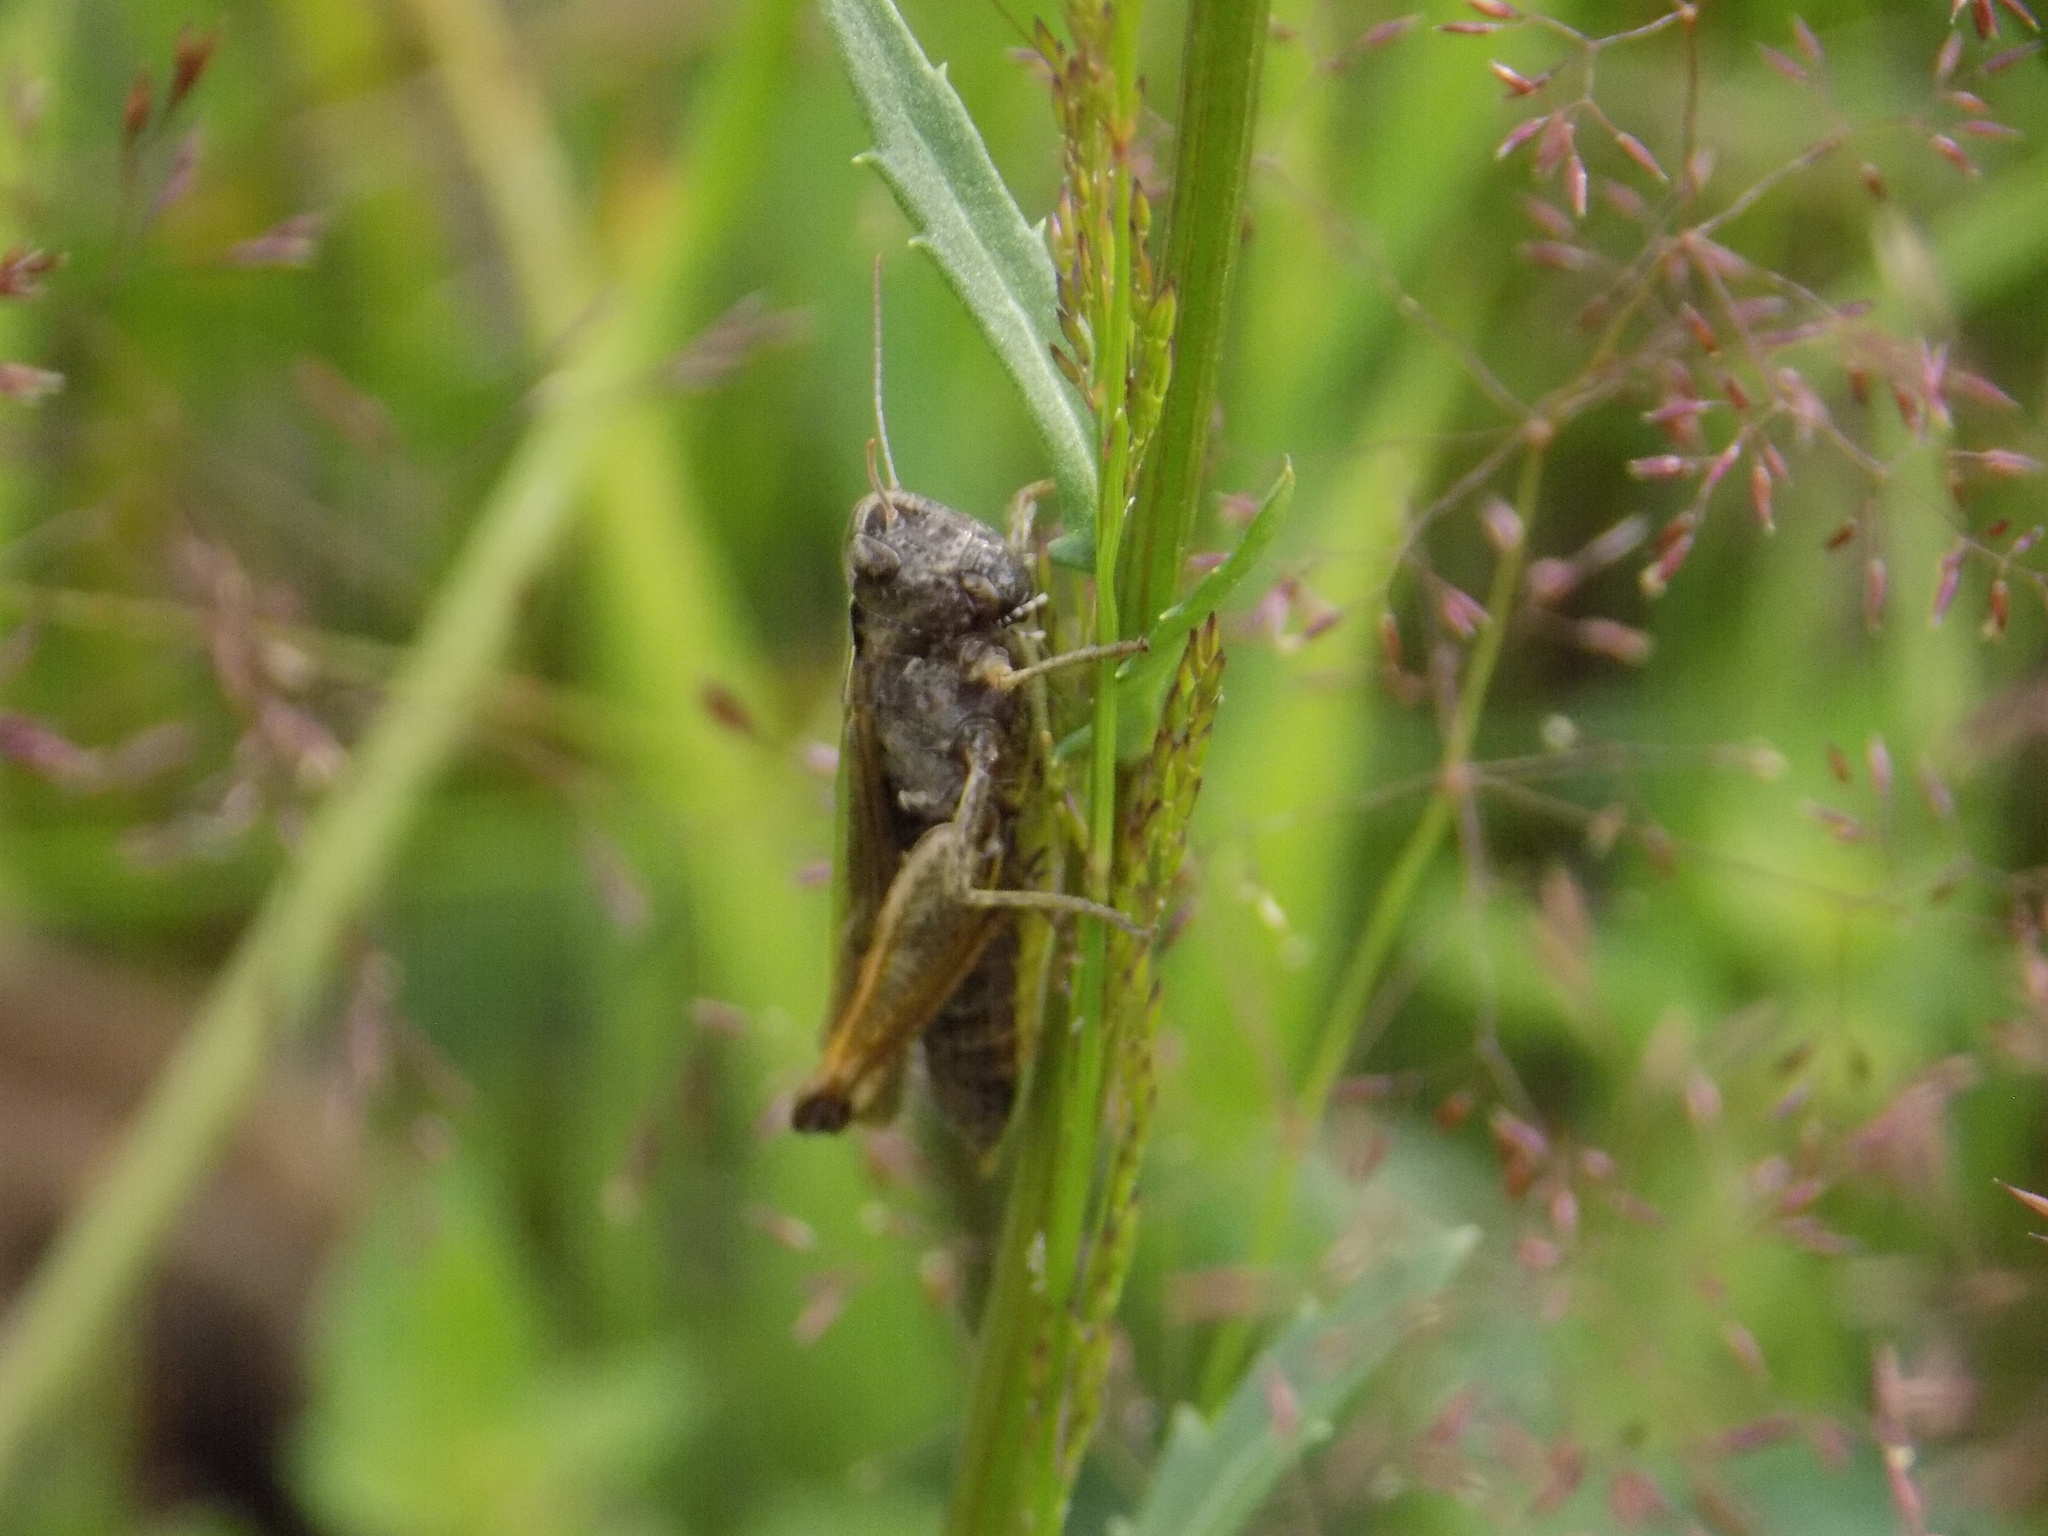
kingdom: Animalia
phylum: Arthropoda
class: Insecta
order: Orthoptera
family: Acrididae
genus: Omocestus
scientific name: Omocestus viridulus
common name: Common green grasshopper
